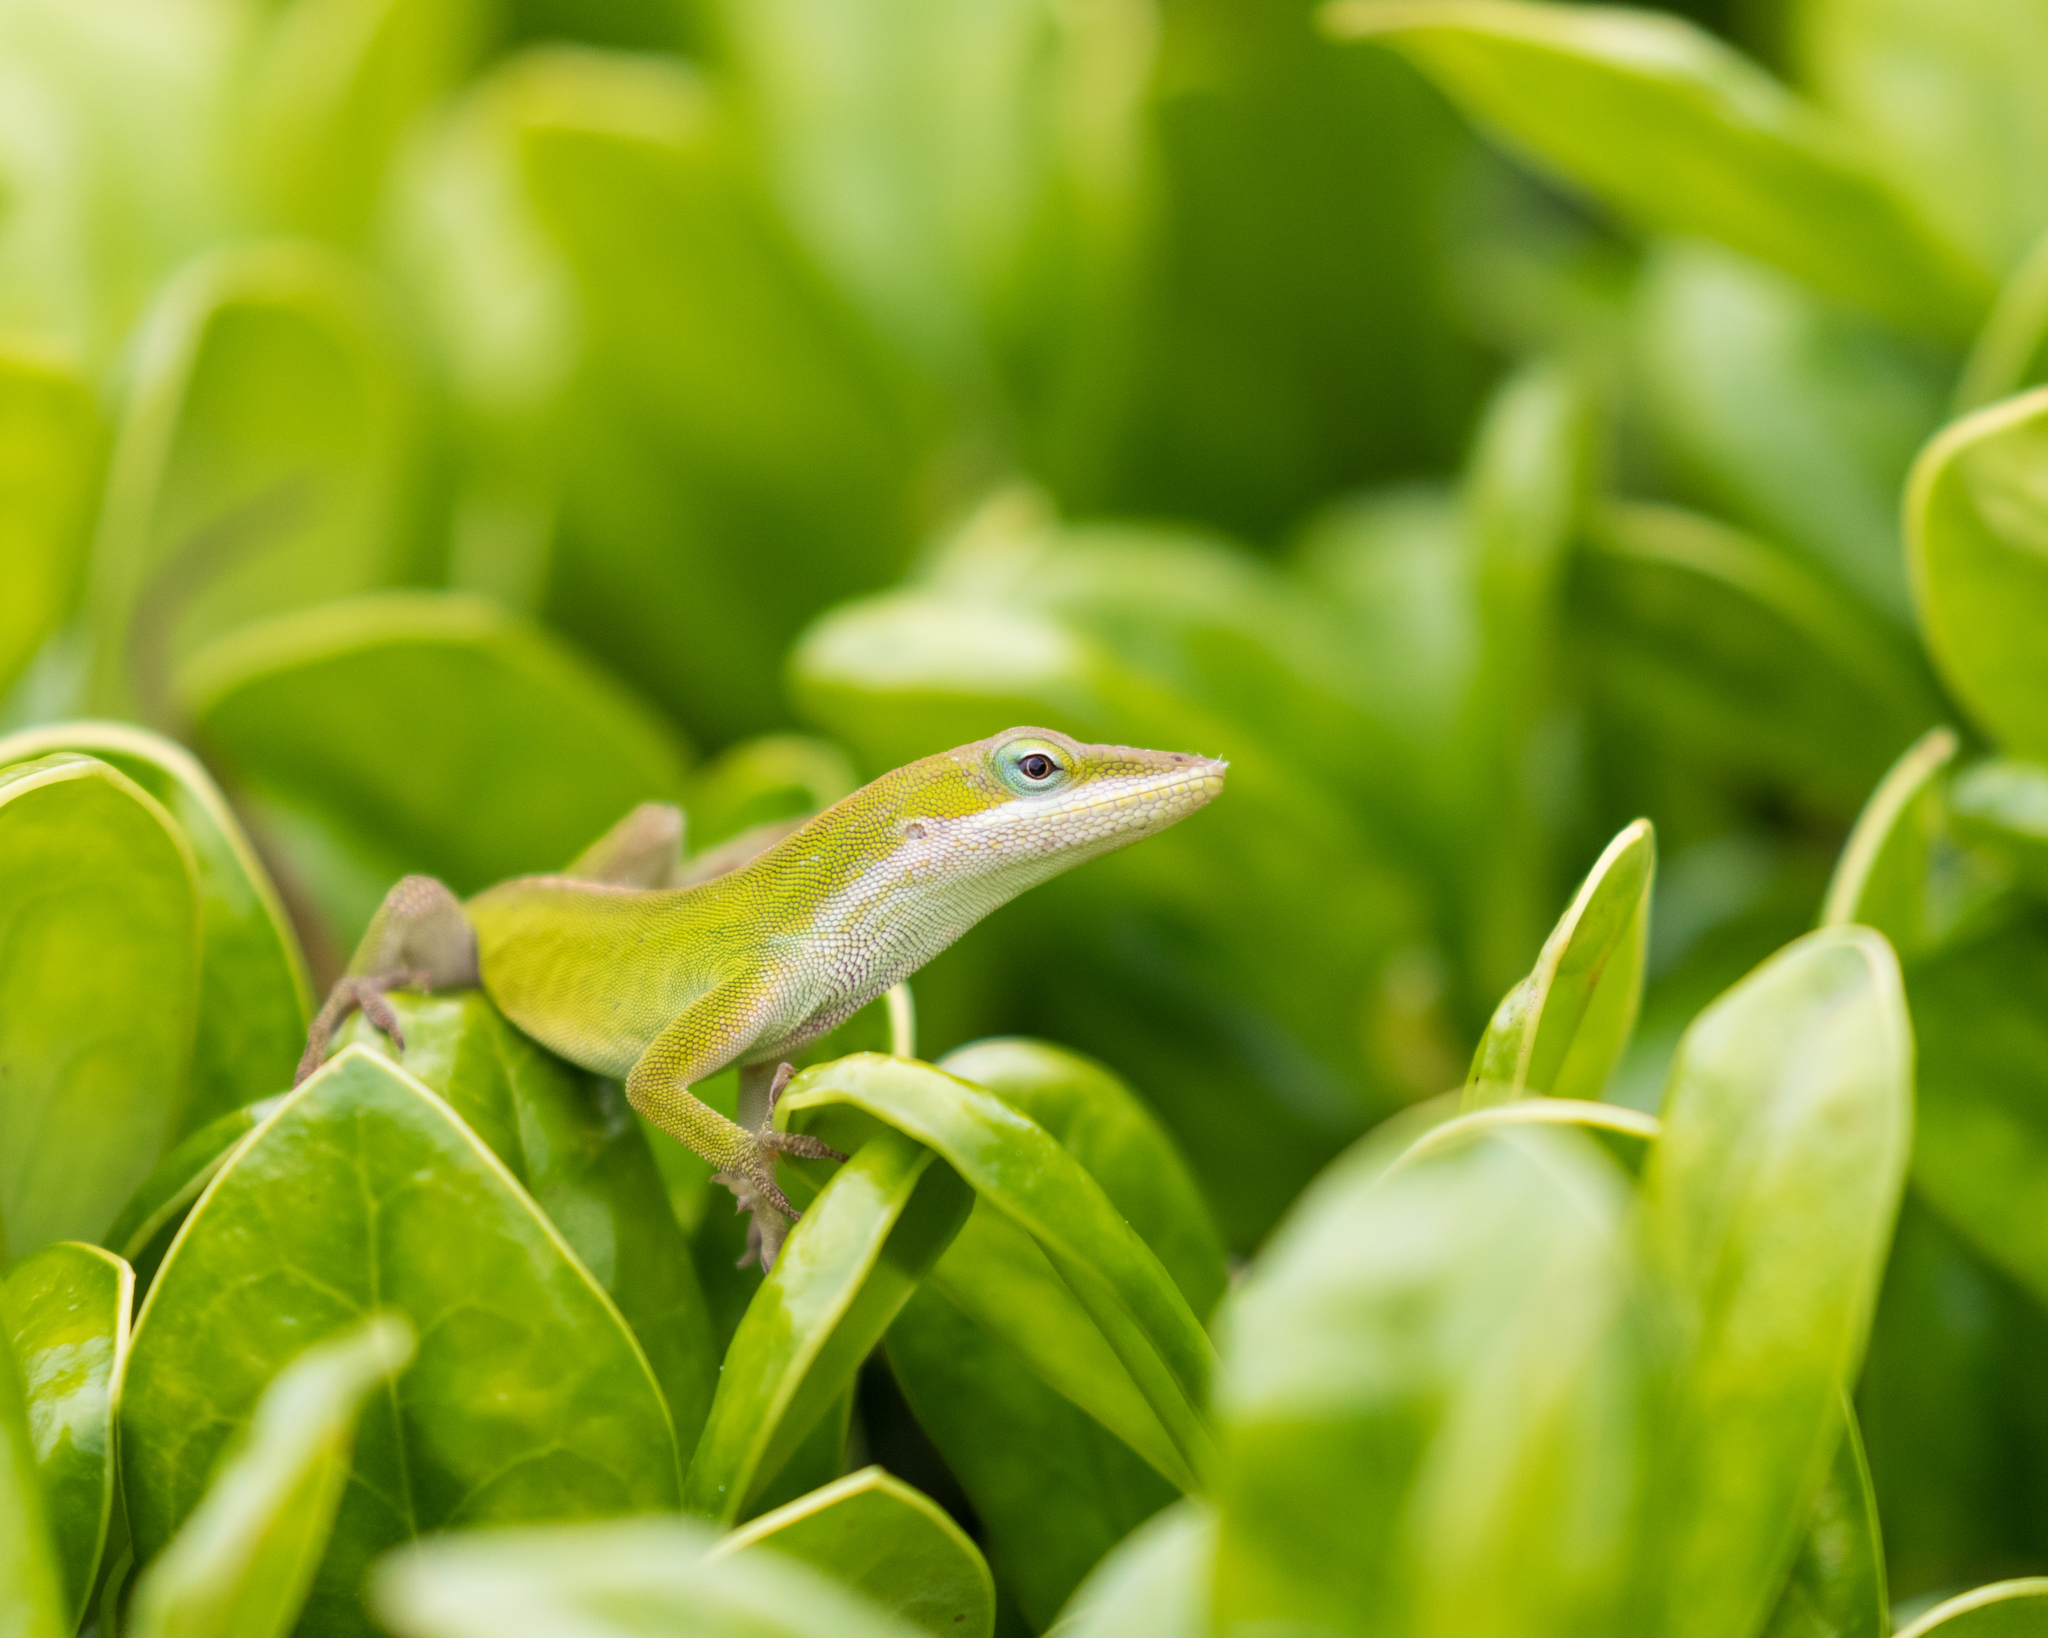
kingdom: Animalia
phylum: Chordata
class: Squamata
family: Dactyloidae
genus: Anolis
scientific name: Anolis carolinensis
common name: Green anole
